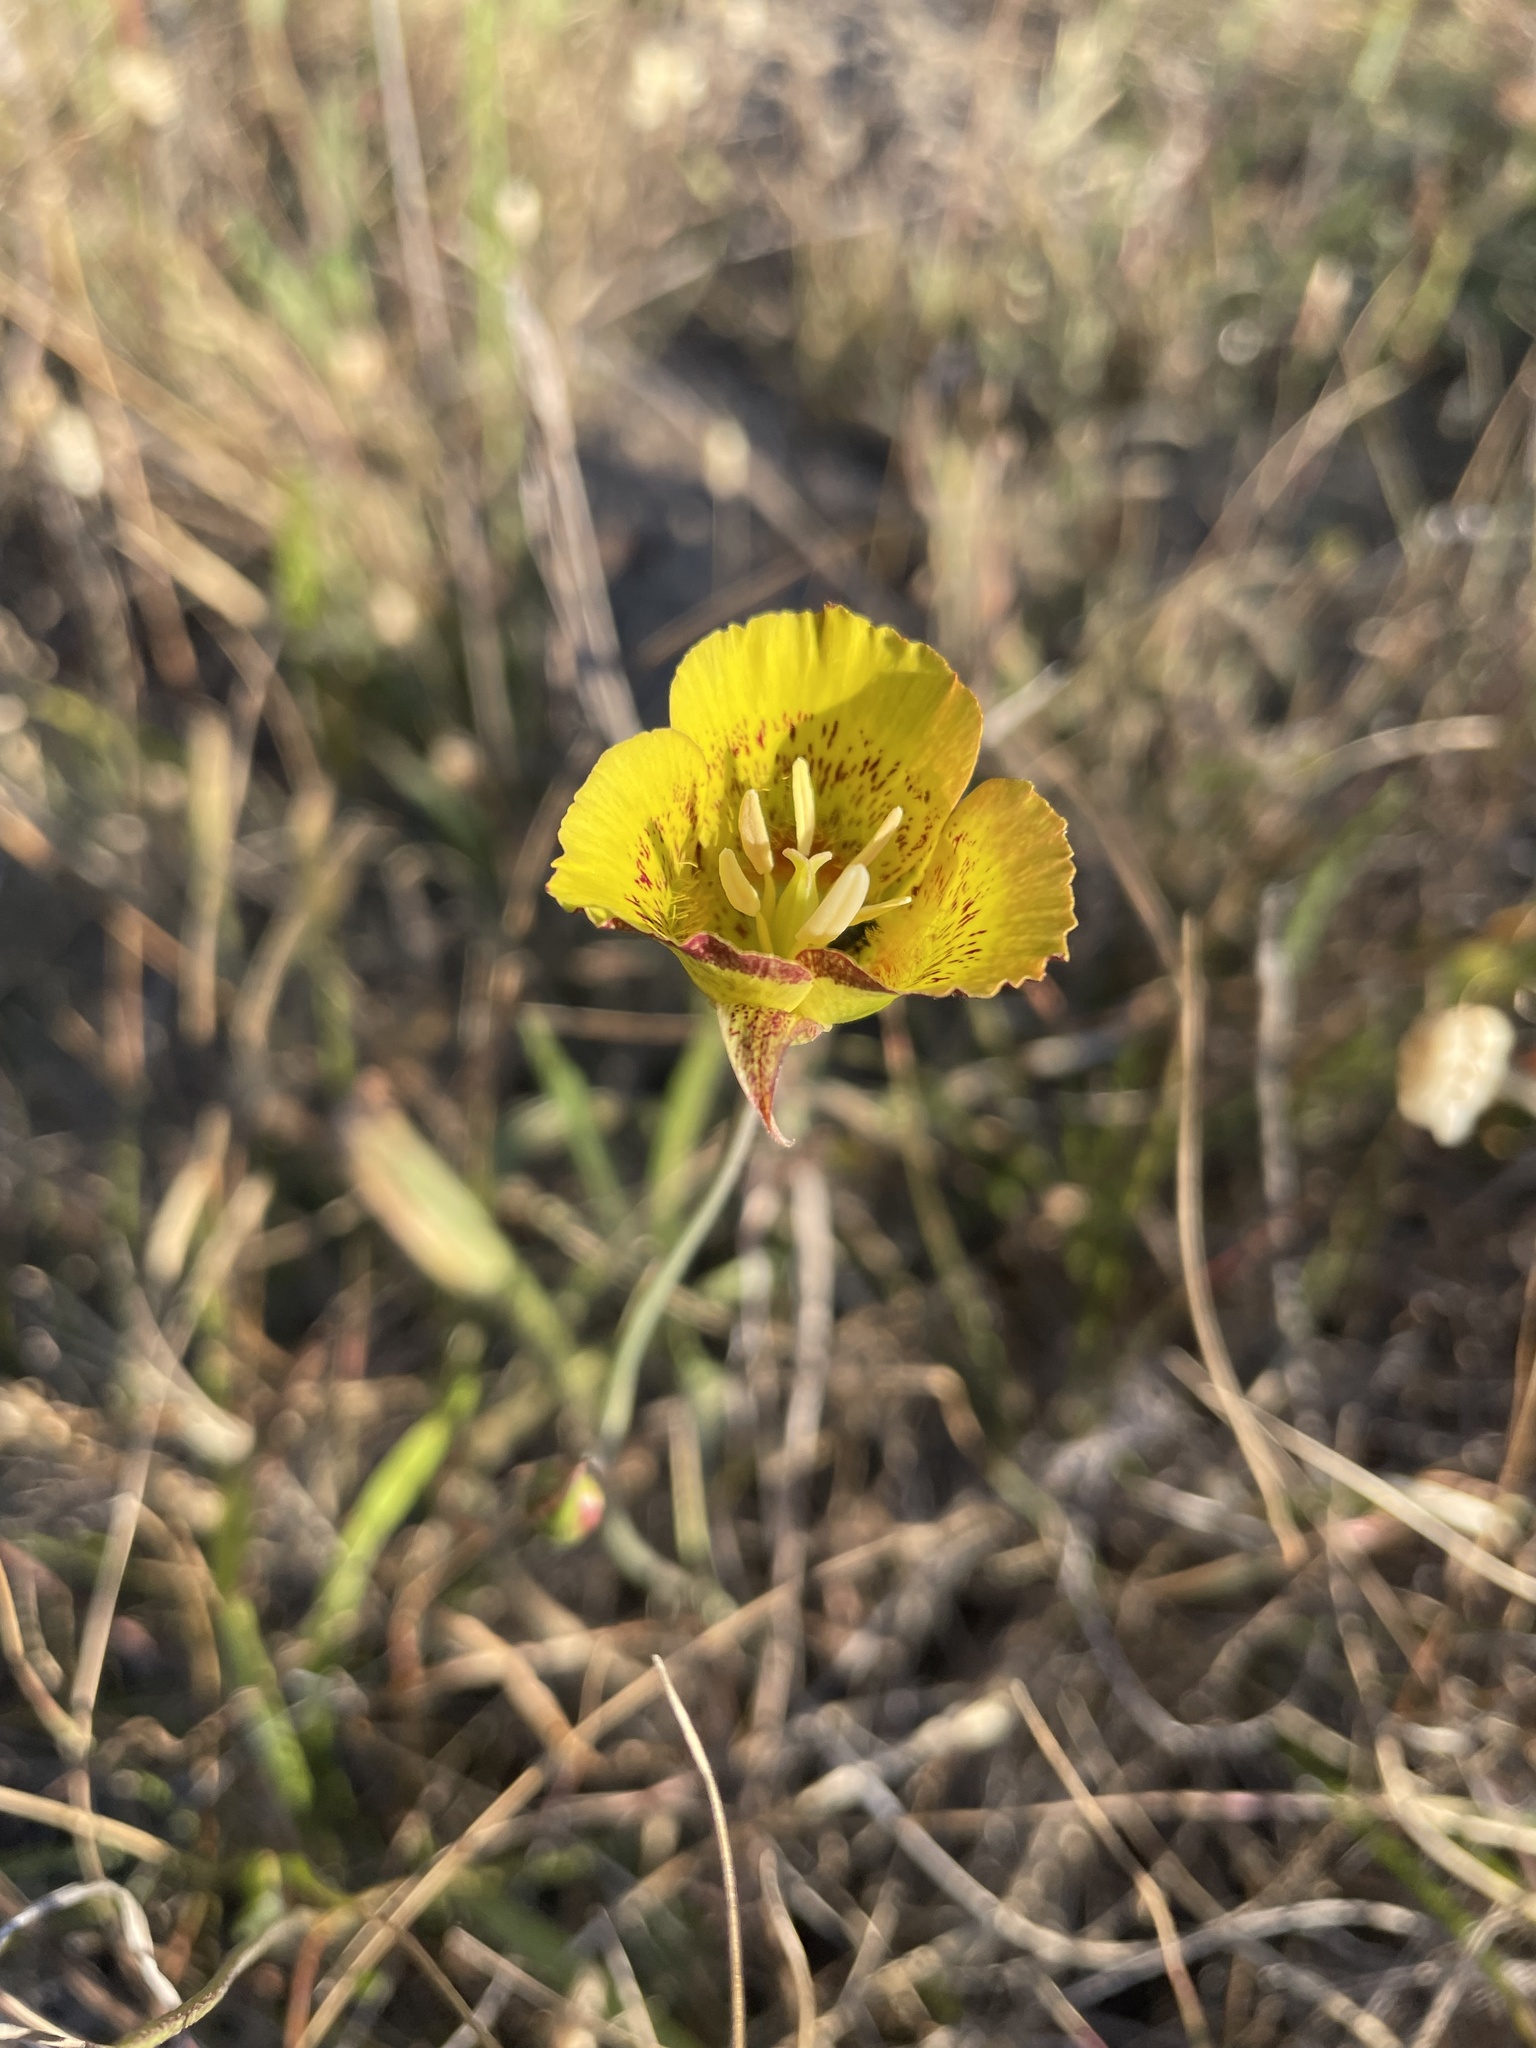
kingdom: Plantae
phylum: Tracheophyta
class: Liliopsida
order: Liliales
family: Liliaceae
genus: Calochortus
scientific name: Calochortus luteus
